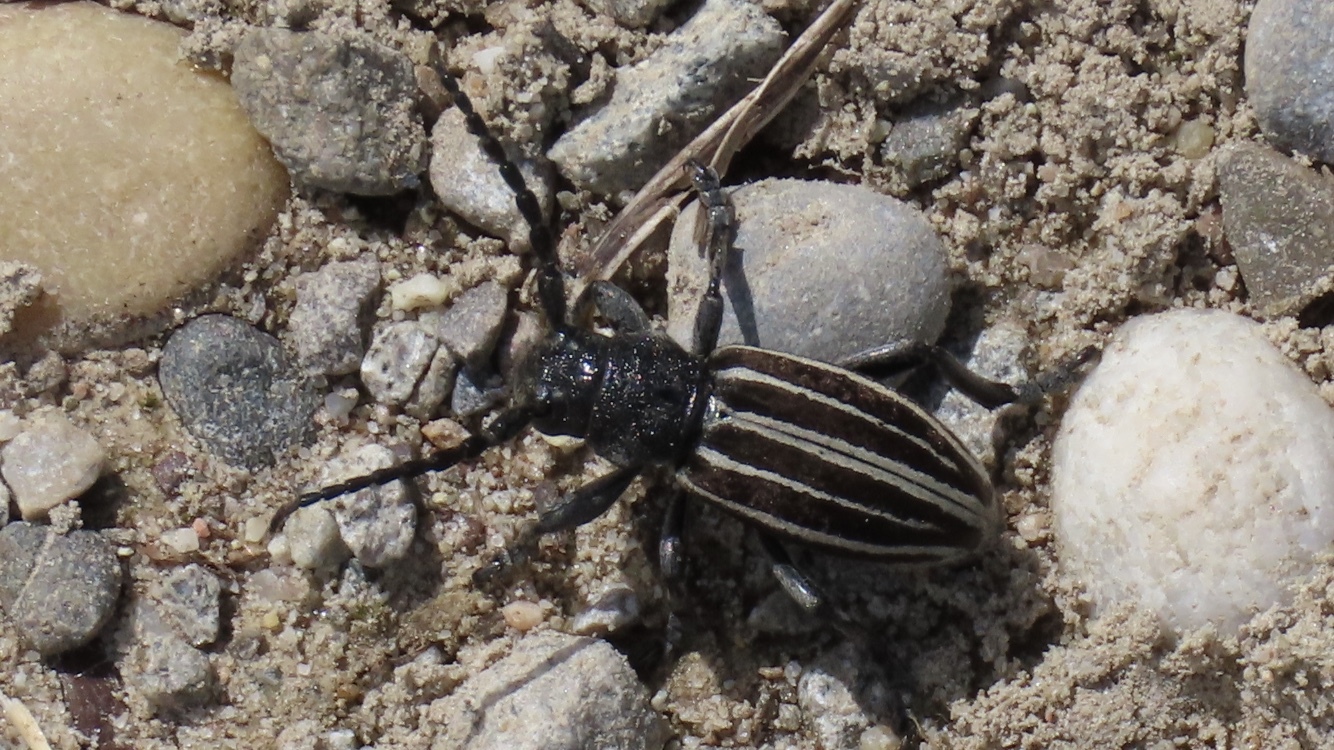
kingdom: Animalia
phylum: Arthropoda
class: Insecta
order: Coleoptera
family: Cerambycidae
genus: Iberodorcadion
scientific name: Iberodorcadion fuliginator
